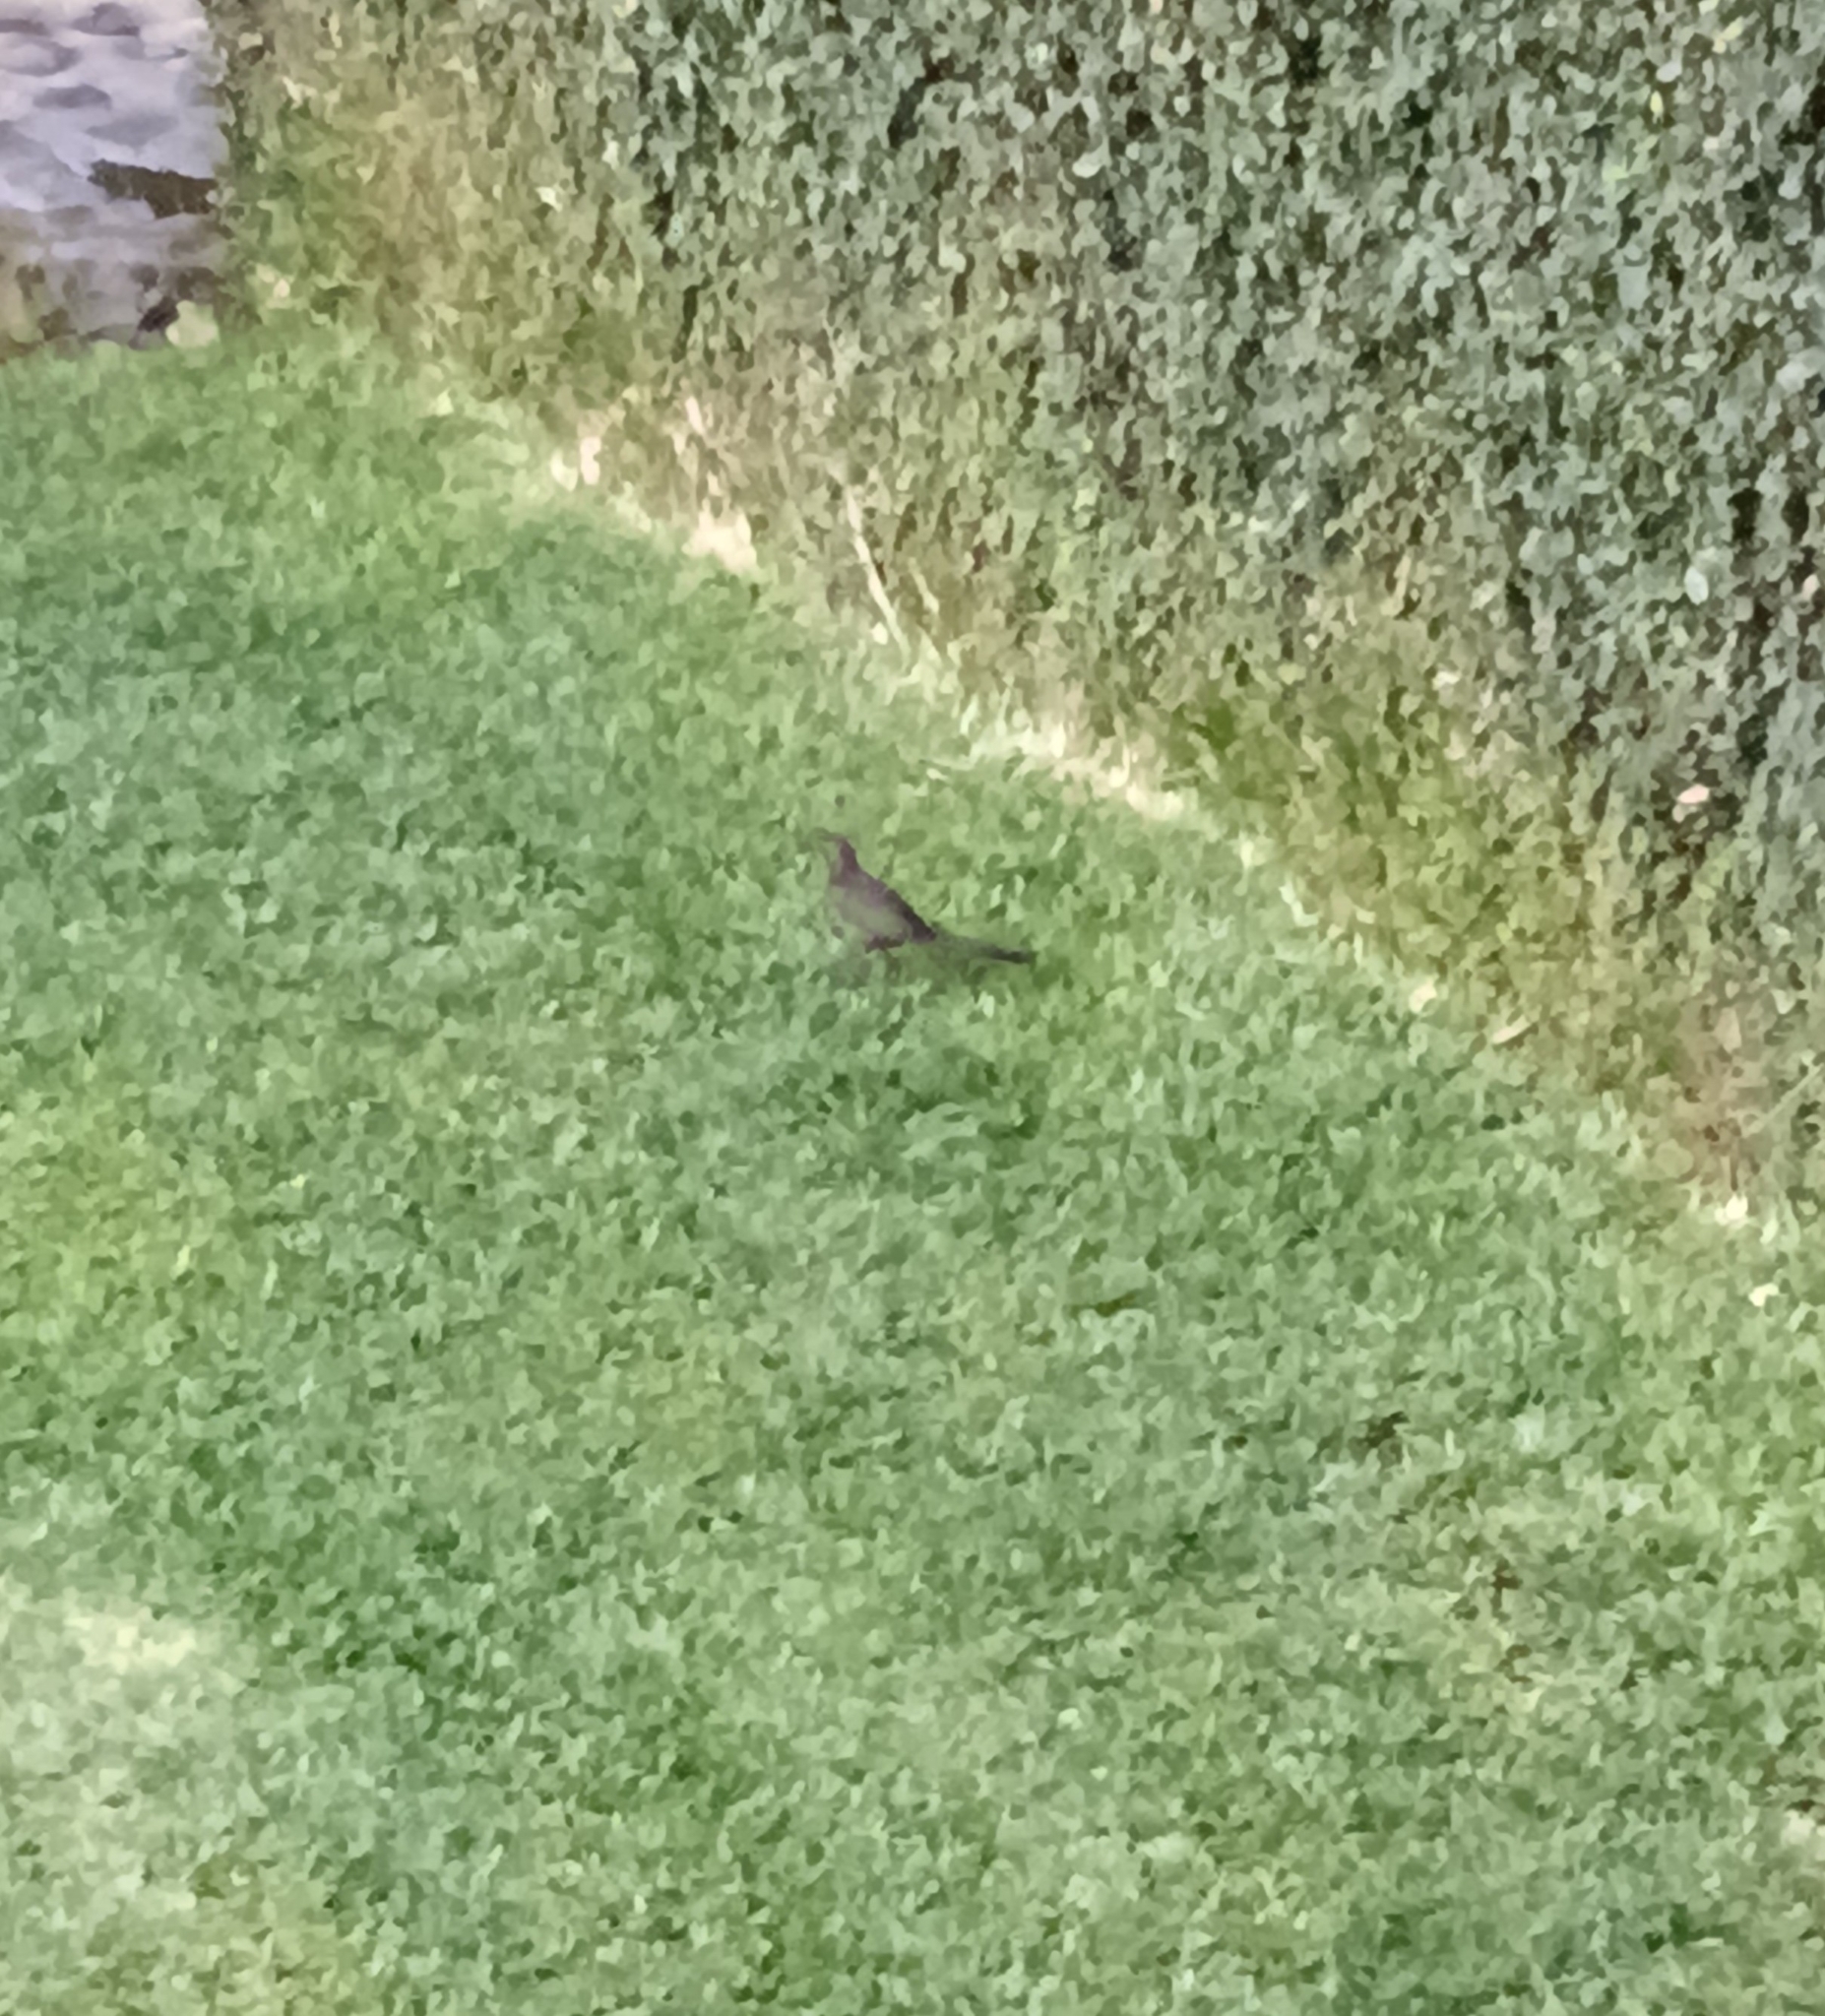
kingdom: Animalia
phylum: Chordata
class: Aves
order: Passeriformes
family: Icteridae
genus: Quiscalus
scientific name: Quiscalus mexicanus
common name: Great-tailed grackle
